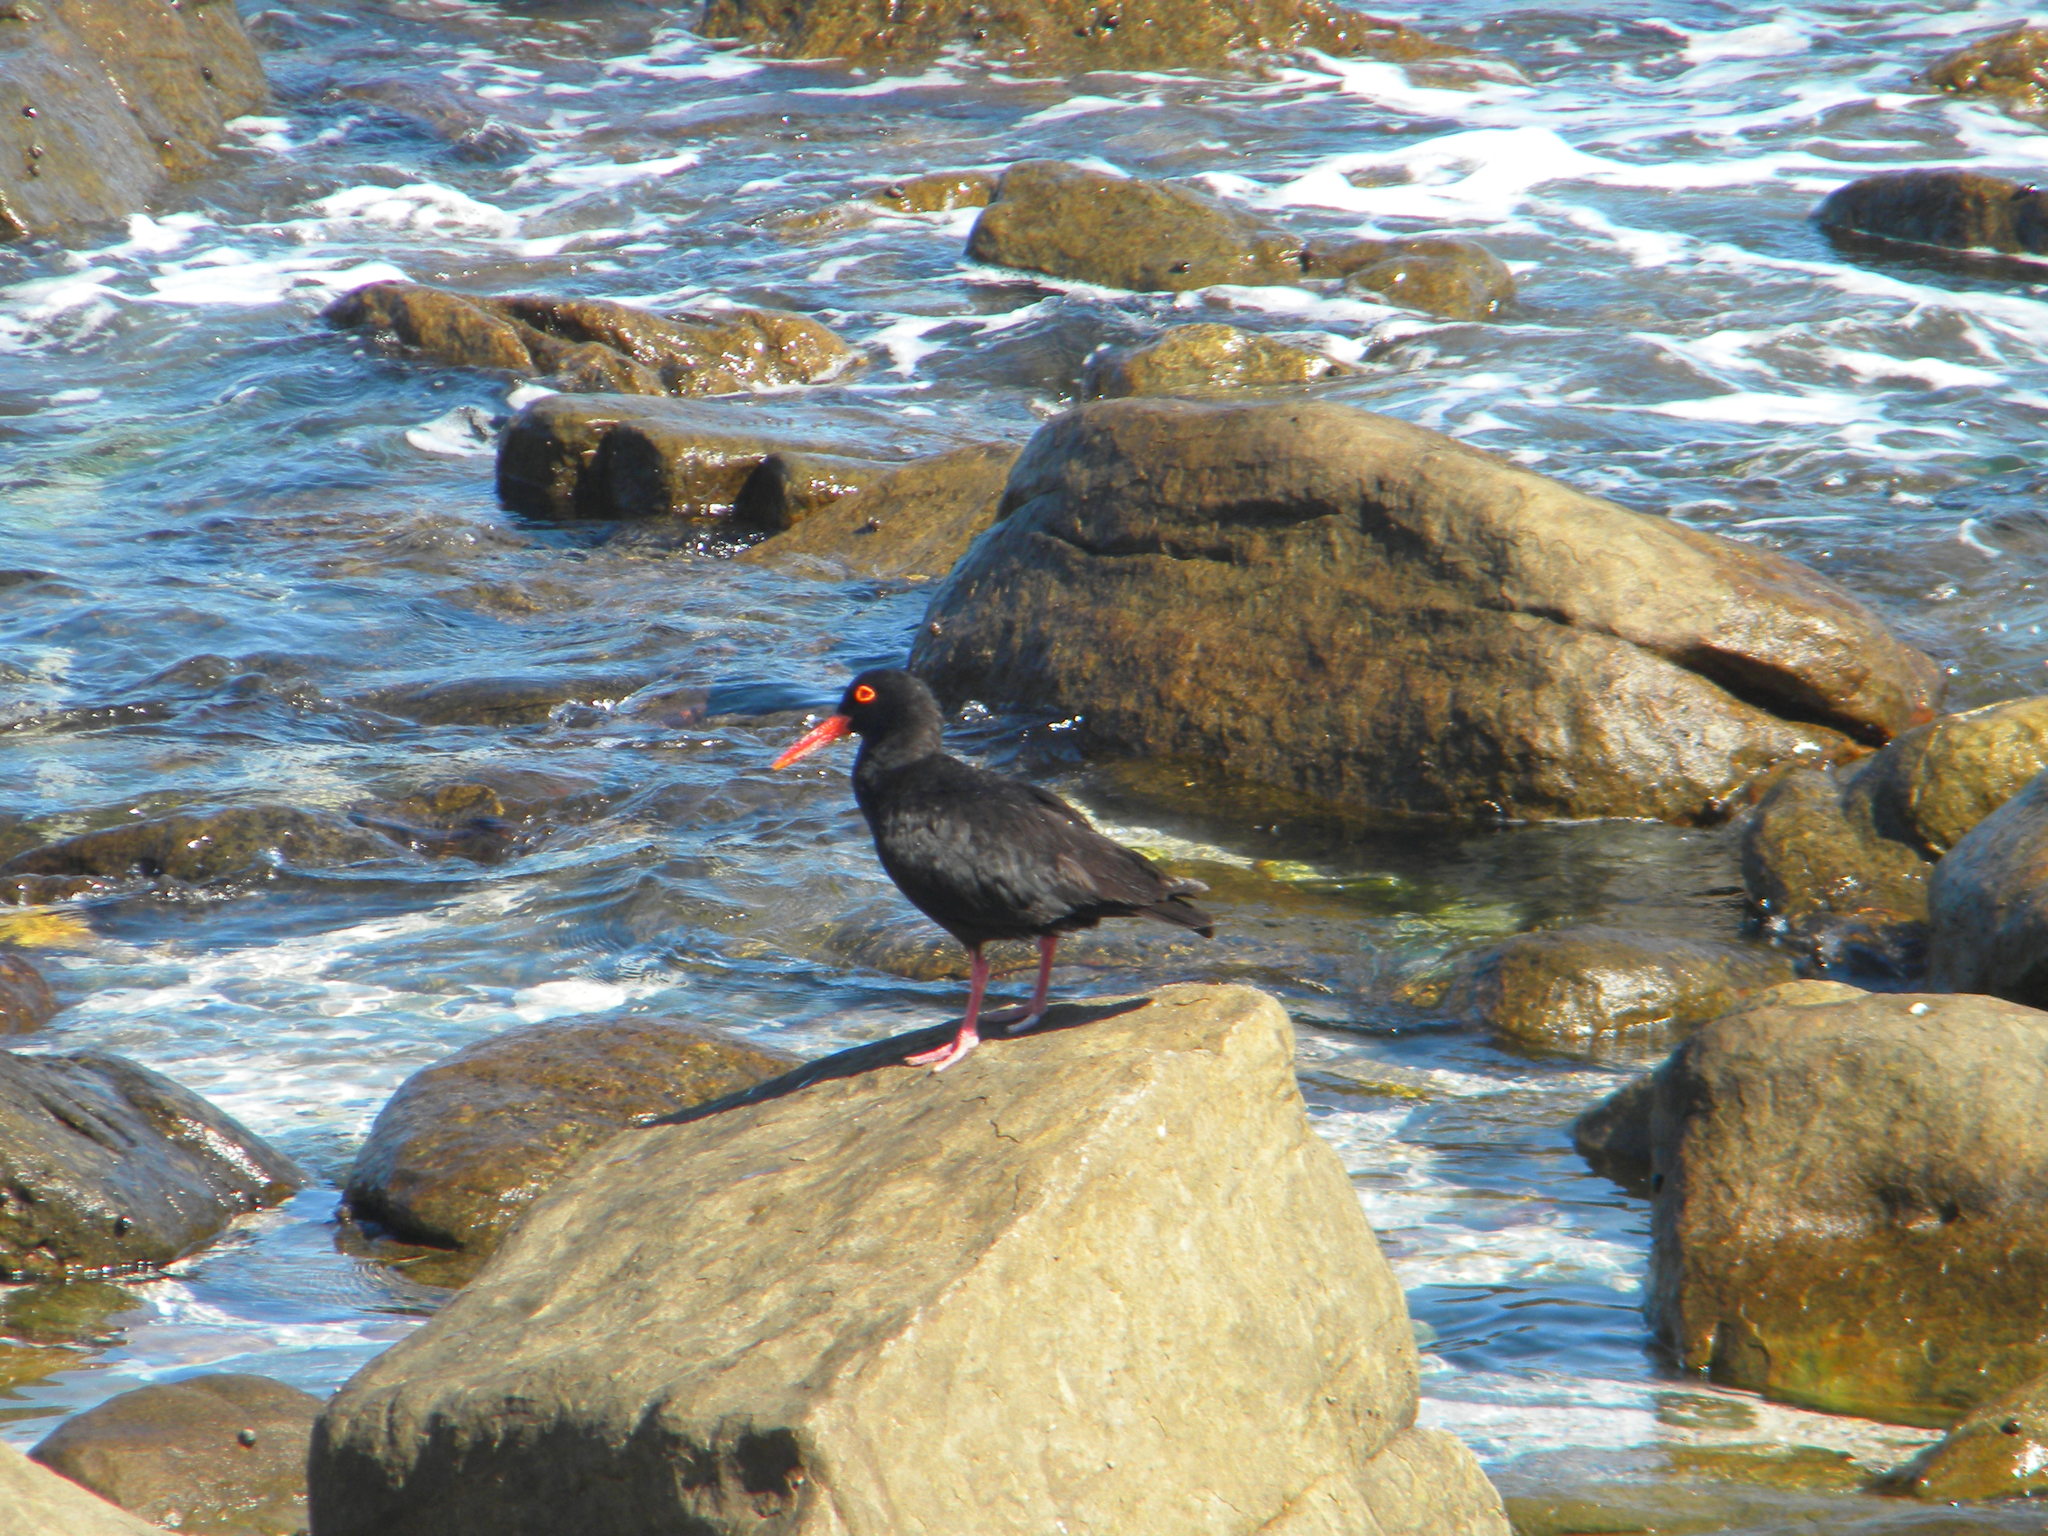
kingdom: Animalia
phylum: Chordata
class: Aves
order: Charadriiformes
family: Haematopodidae
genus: Haematopus
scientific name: Haematopus moquini
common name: African oystercatcher
